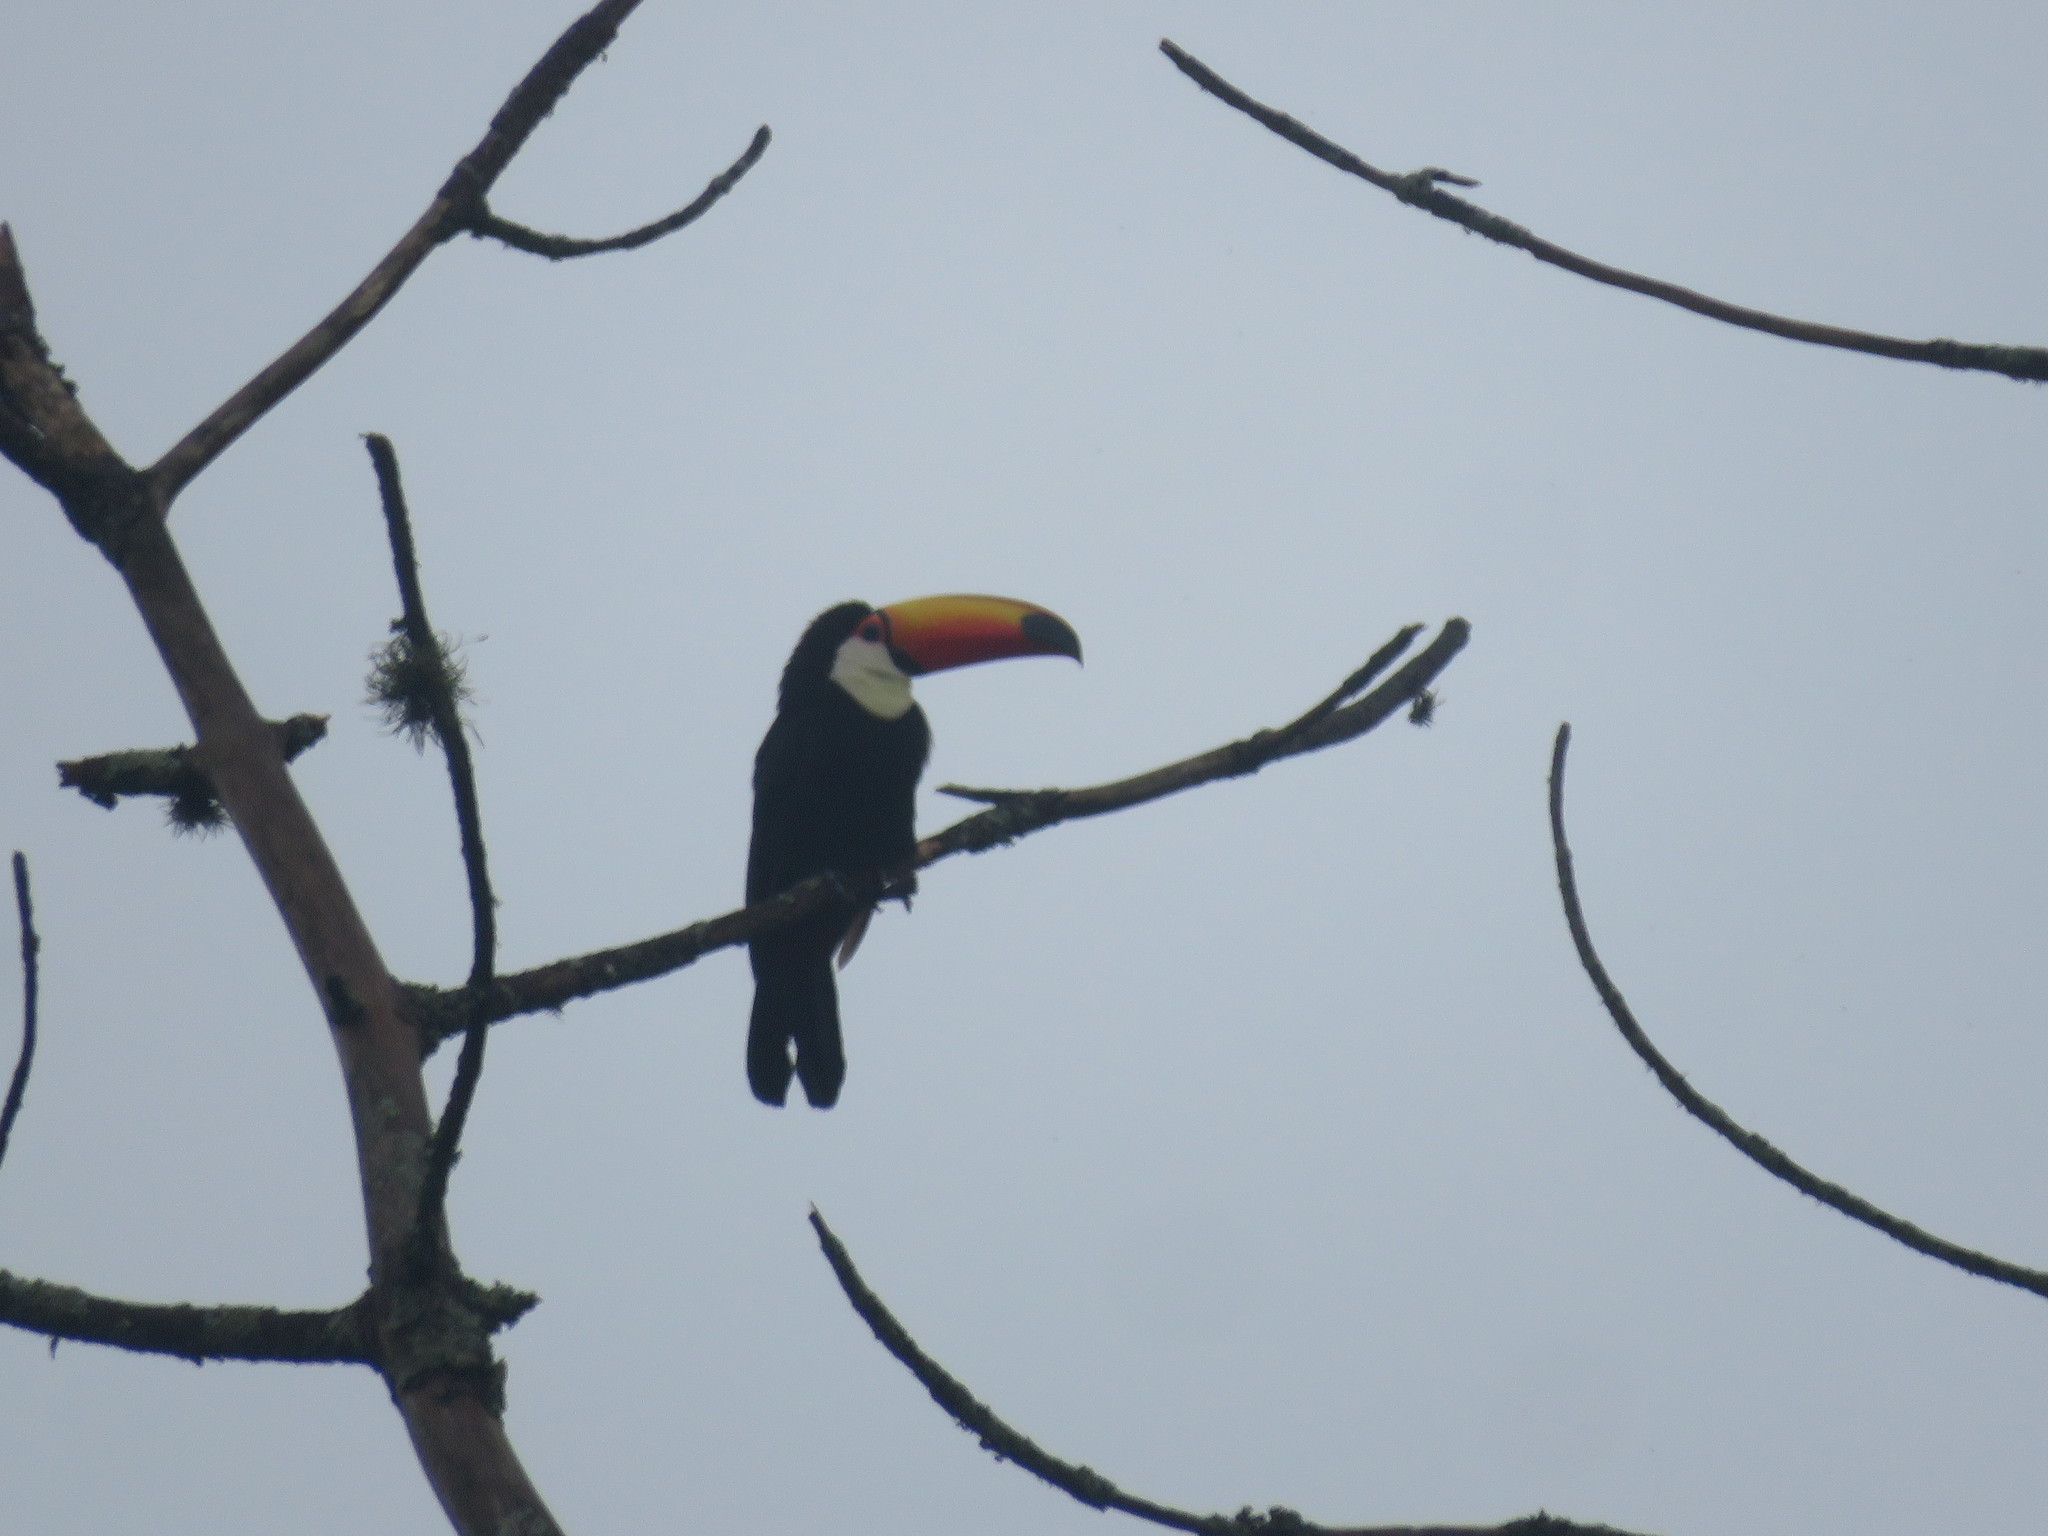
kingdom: Animalia
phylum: Chordata
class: Aves
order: Piciformes
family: Ramphastidae
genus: Ramphastos
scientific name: Ramphastos toco
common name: Toco toucan
